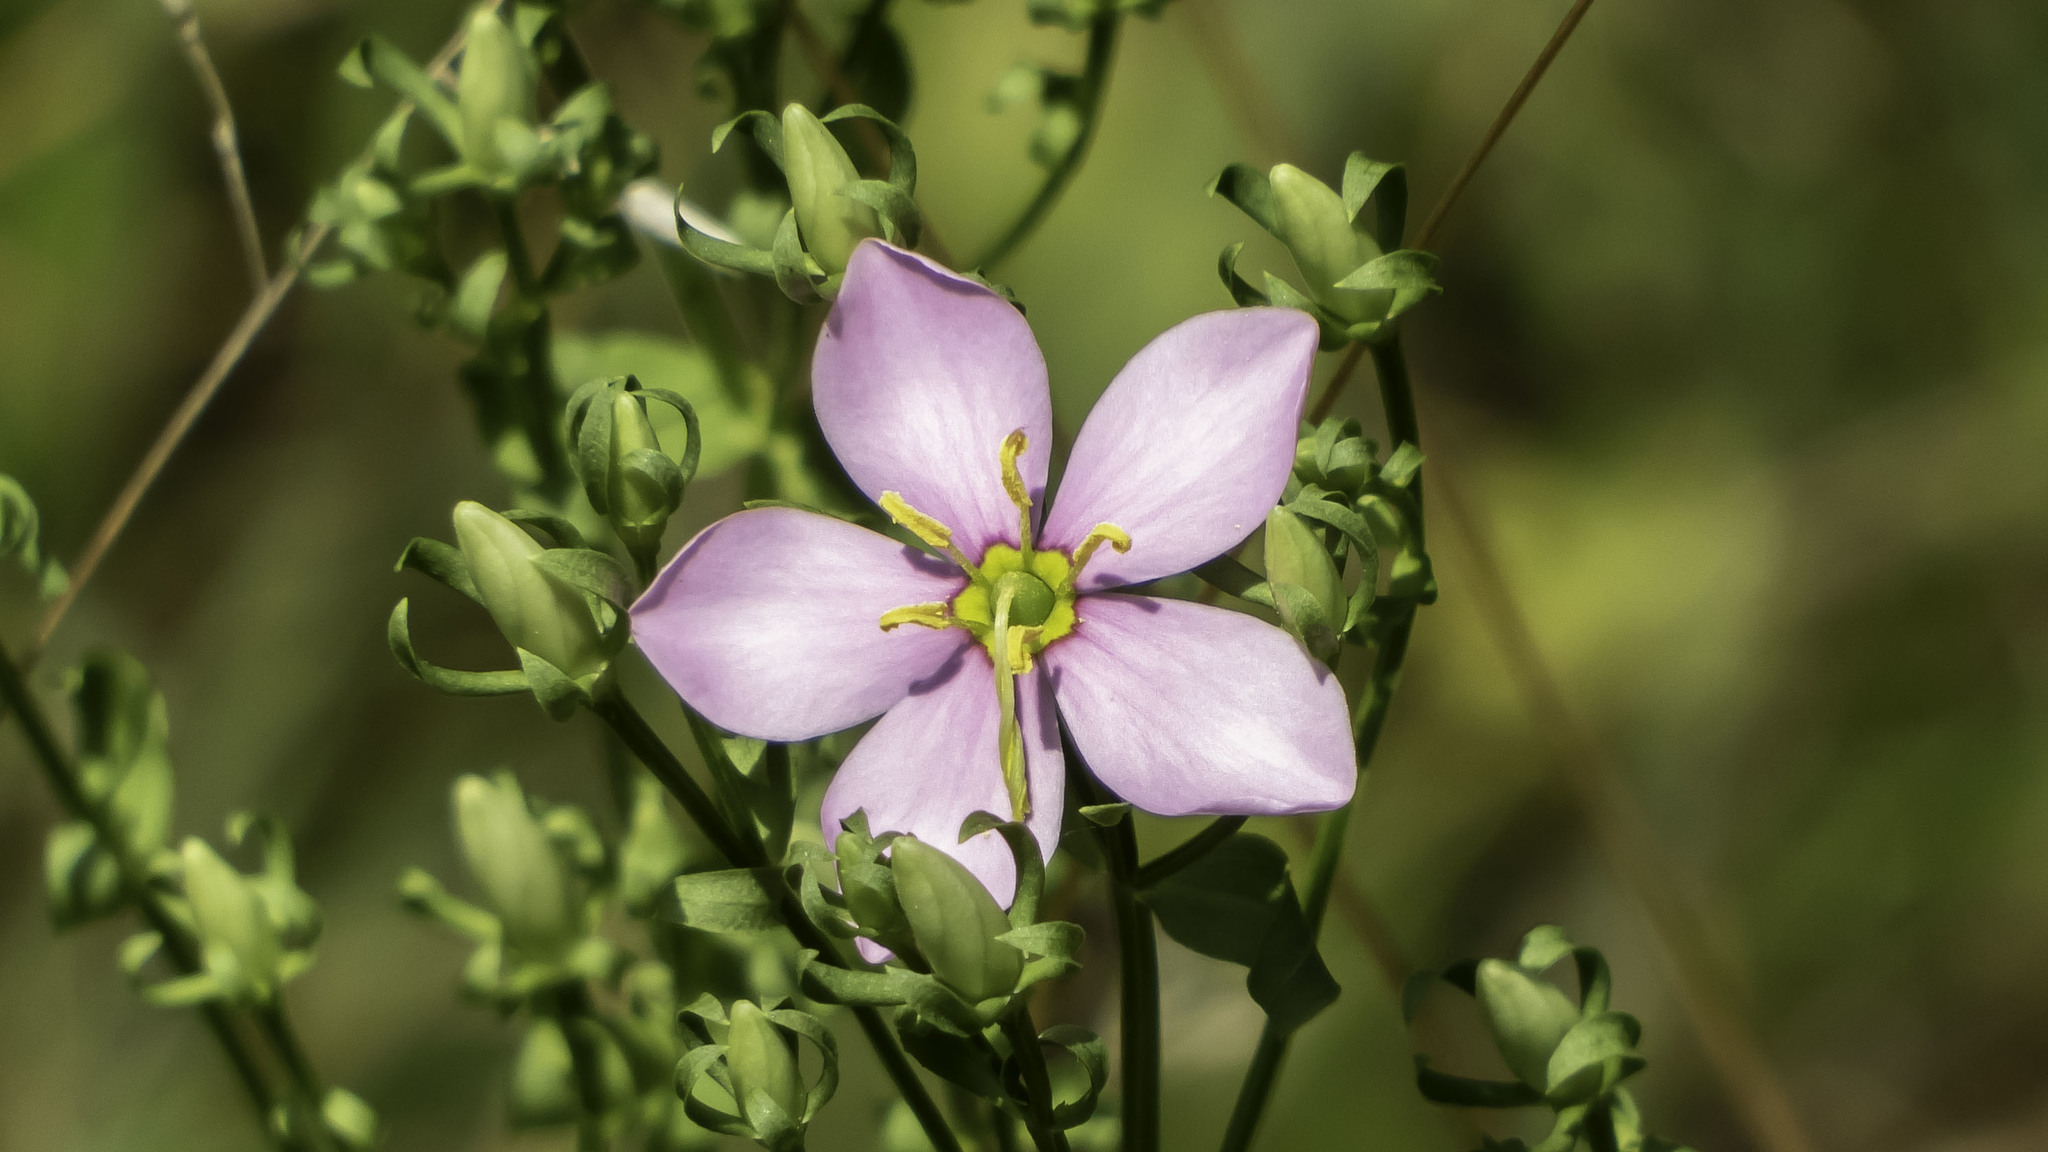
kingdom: Plantae
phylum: Tracheophyta
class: Magnoliopsida
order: Gentianales
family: Gentianaceae
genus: Sabatia
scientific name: Sabatia angularis
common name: Rose-pink
